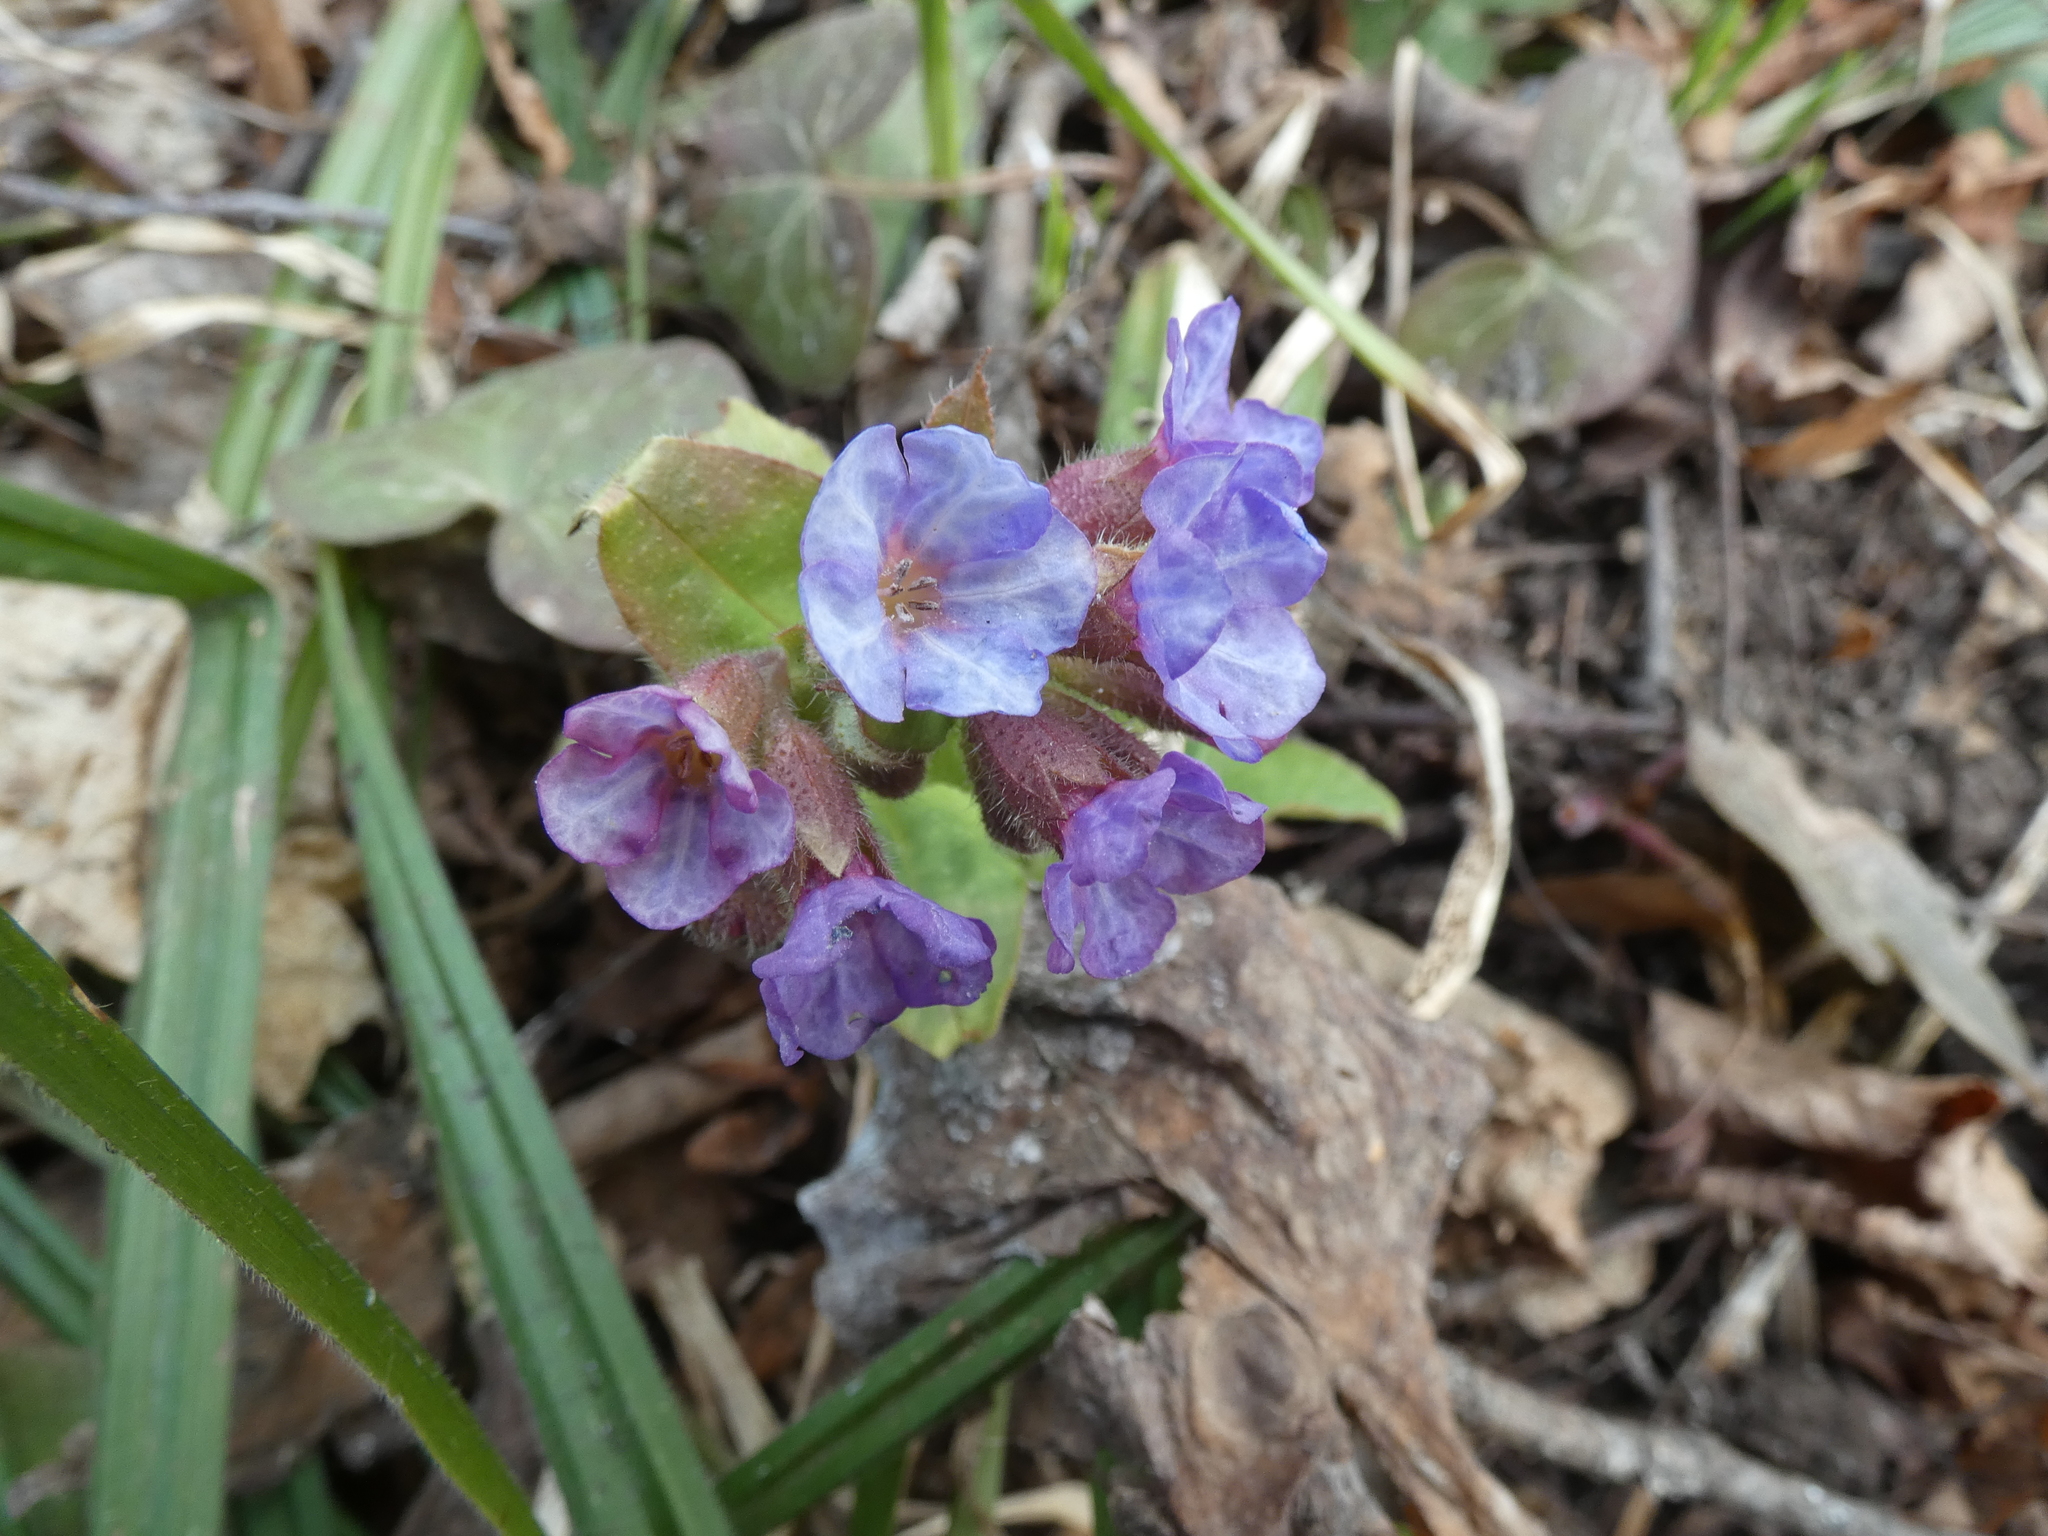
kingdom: Plantae
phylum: Tracheophyta
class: Magnoliopsida
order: Boraginales
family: Boraginaceae
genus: Pulmonaria
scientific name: Pulmonaria obscura
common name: Suffolk lungwort
